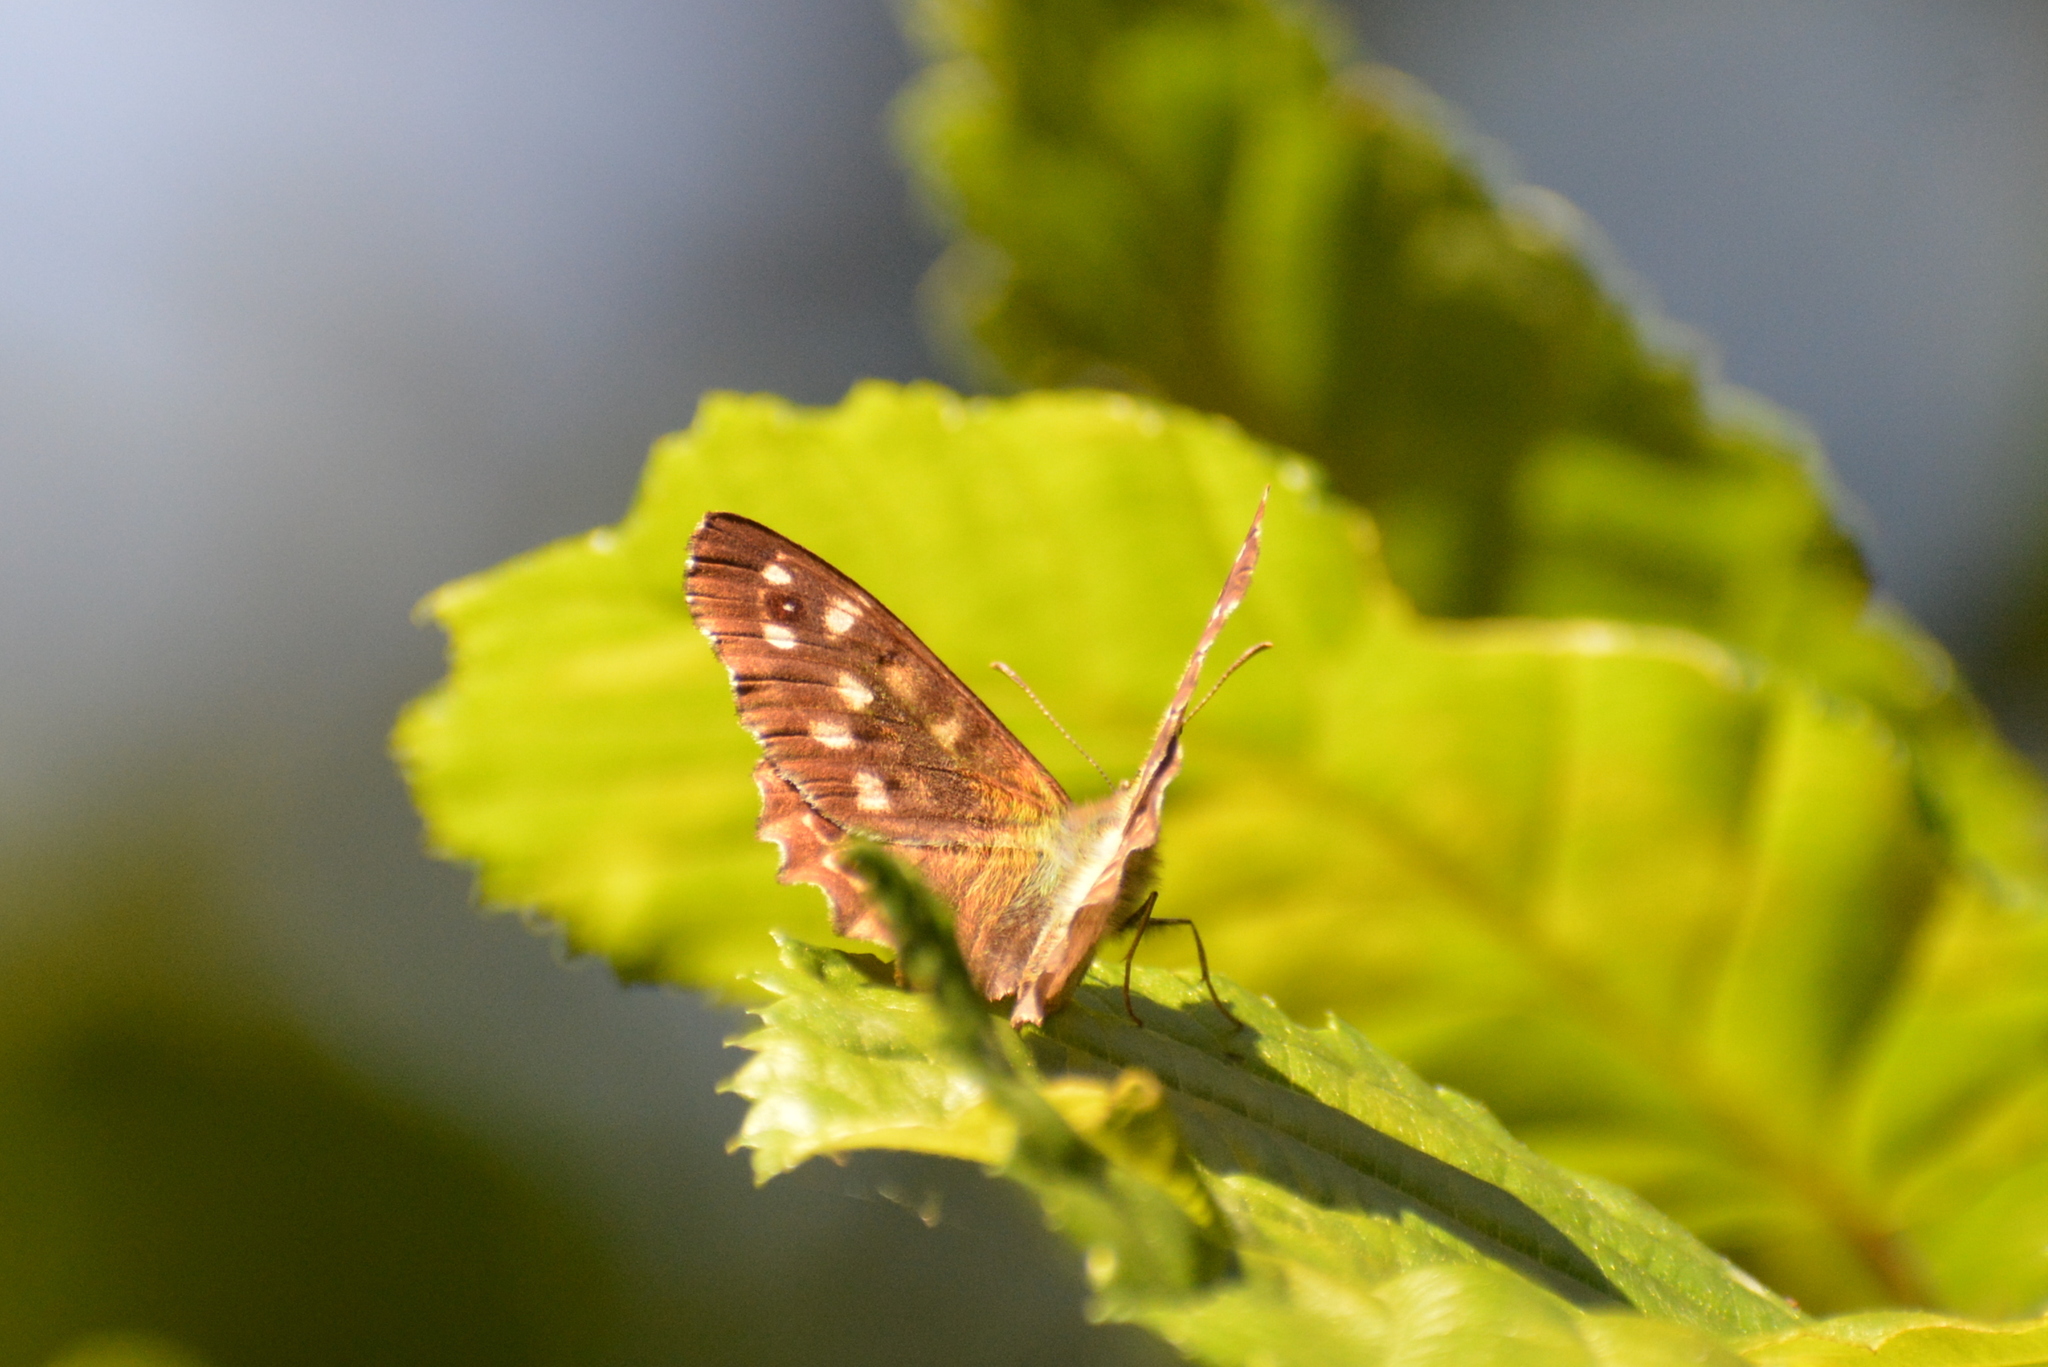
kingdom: Animalia
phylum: Arthropoda
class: Insecta
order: Lepidoptera
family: Nymphalidae
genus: Pararge
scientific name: Pararge aegeria
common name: Speckled wood
